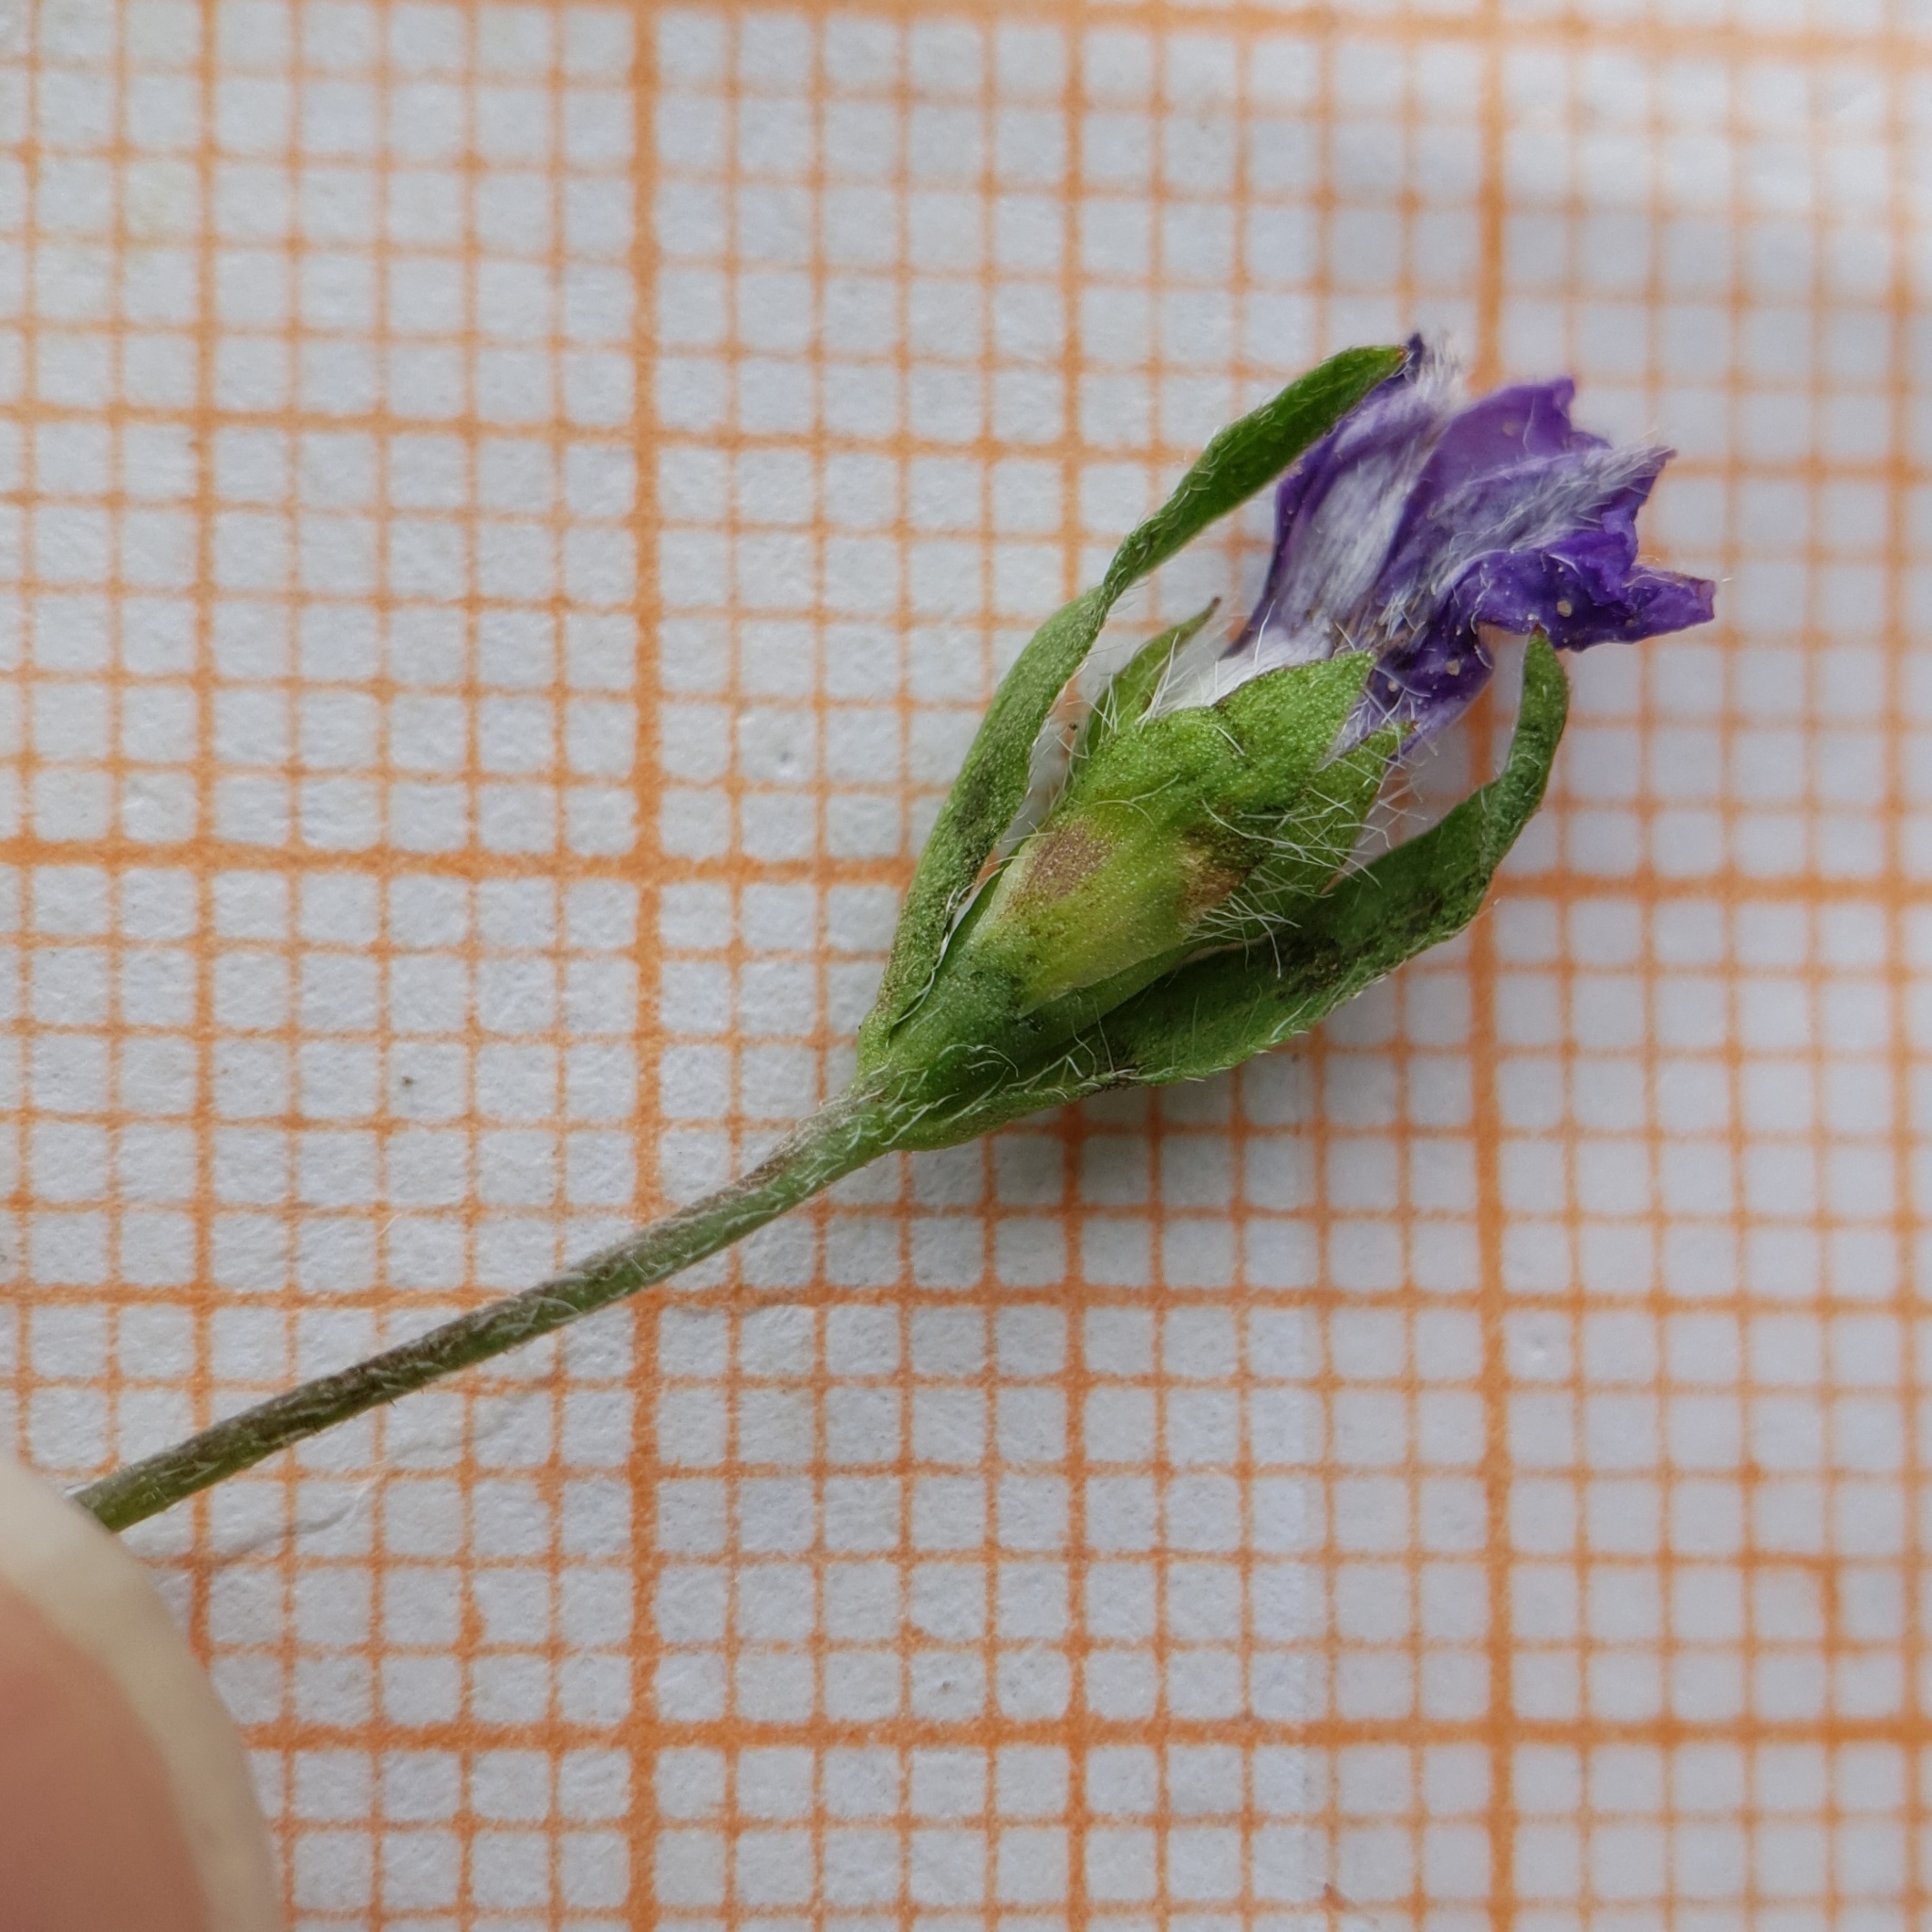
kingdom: Plantae
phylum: Tracheophyta
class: Magnoliopsida
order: Solanales
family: Convolvulaceae
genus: Convolvulus
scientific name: Convolvulus siculus
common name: Small blue-convolvulus
